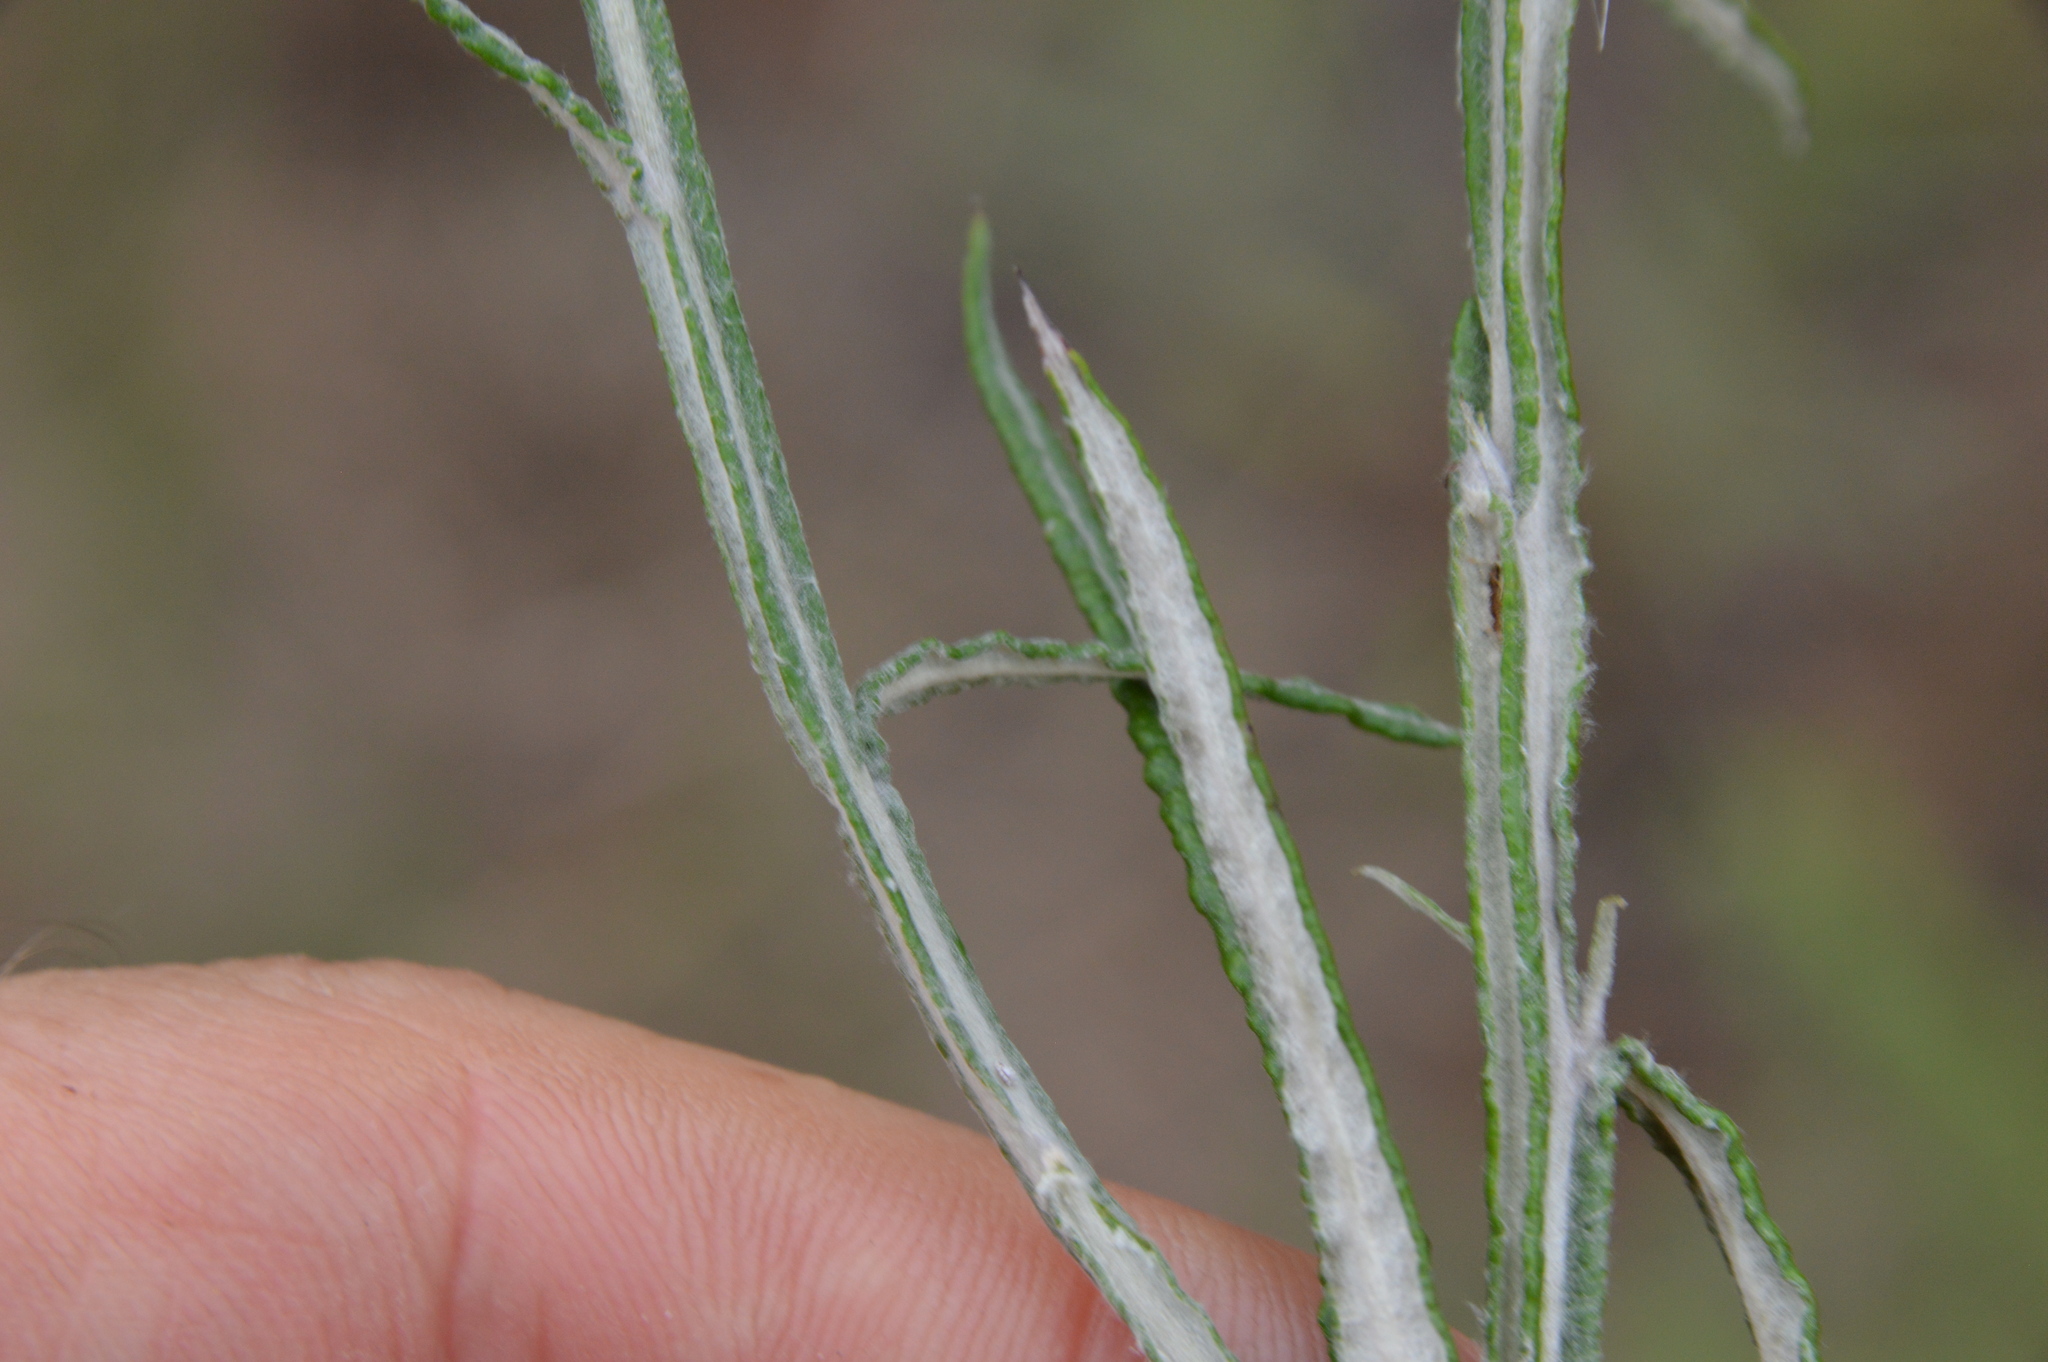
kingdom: Plantae
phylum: Tracheophyta
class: Magnoliopsida
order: Asterales
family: Asteraceae
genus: Pterocaulon
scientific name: Pterocaulon virgatum
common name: Wand blackroot
